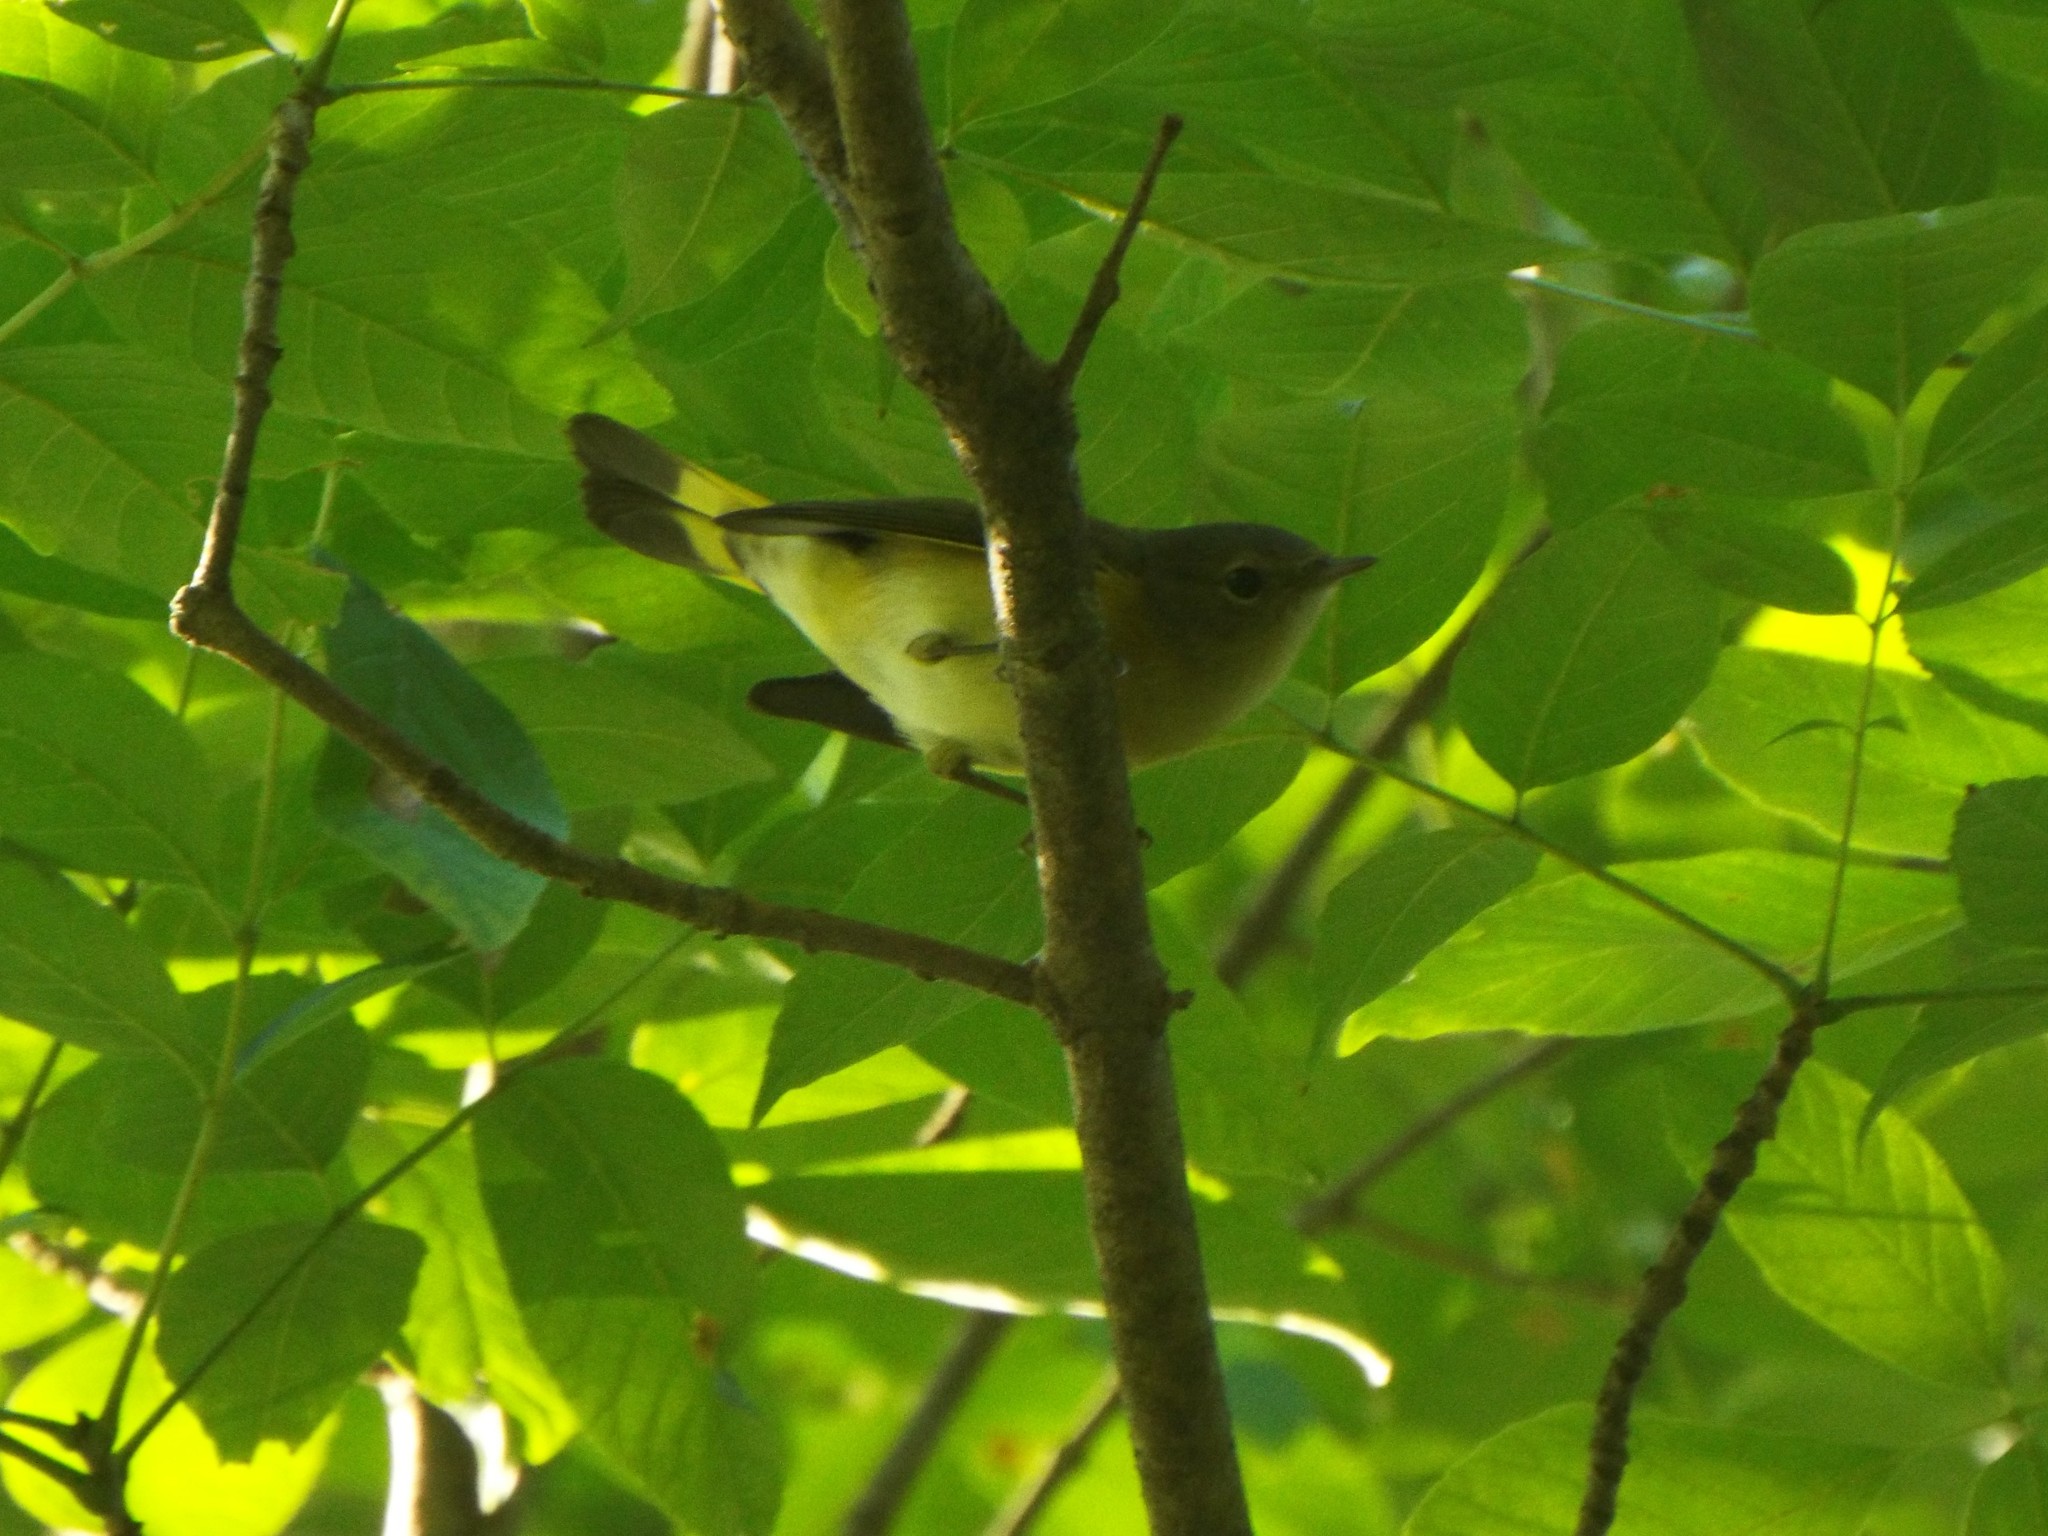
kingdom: Animalia
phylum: Chordata
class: Aves
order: Passeriformes
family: Parulidae
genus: Setophaga
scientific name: Setophaga ruticilla
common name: American redstart
